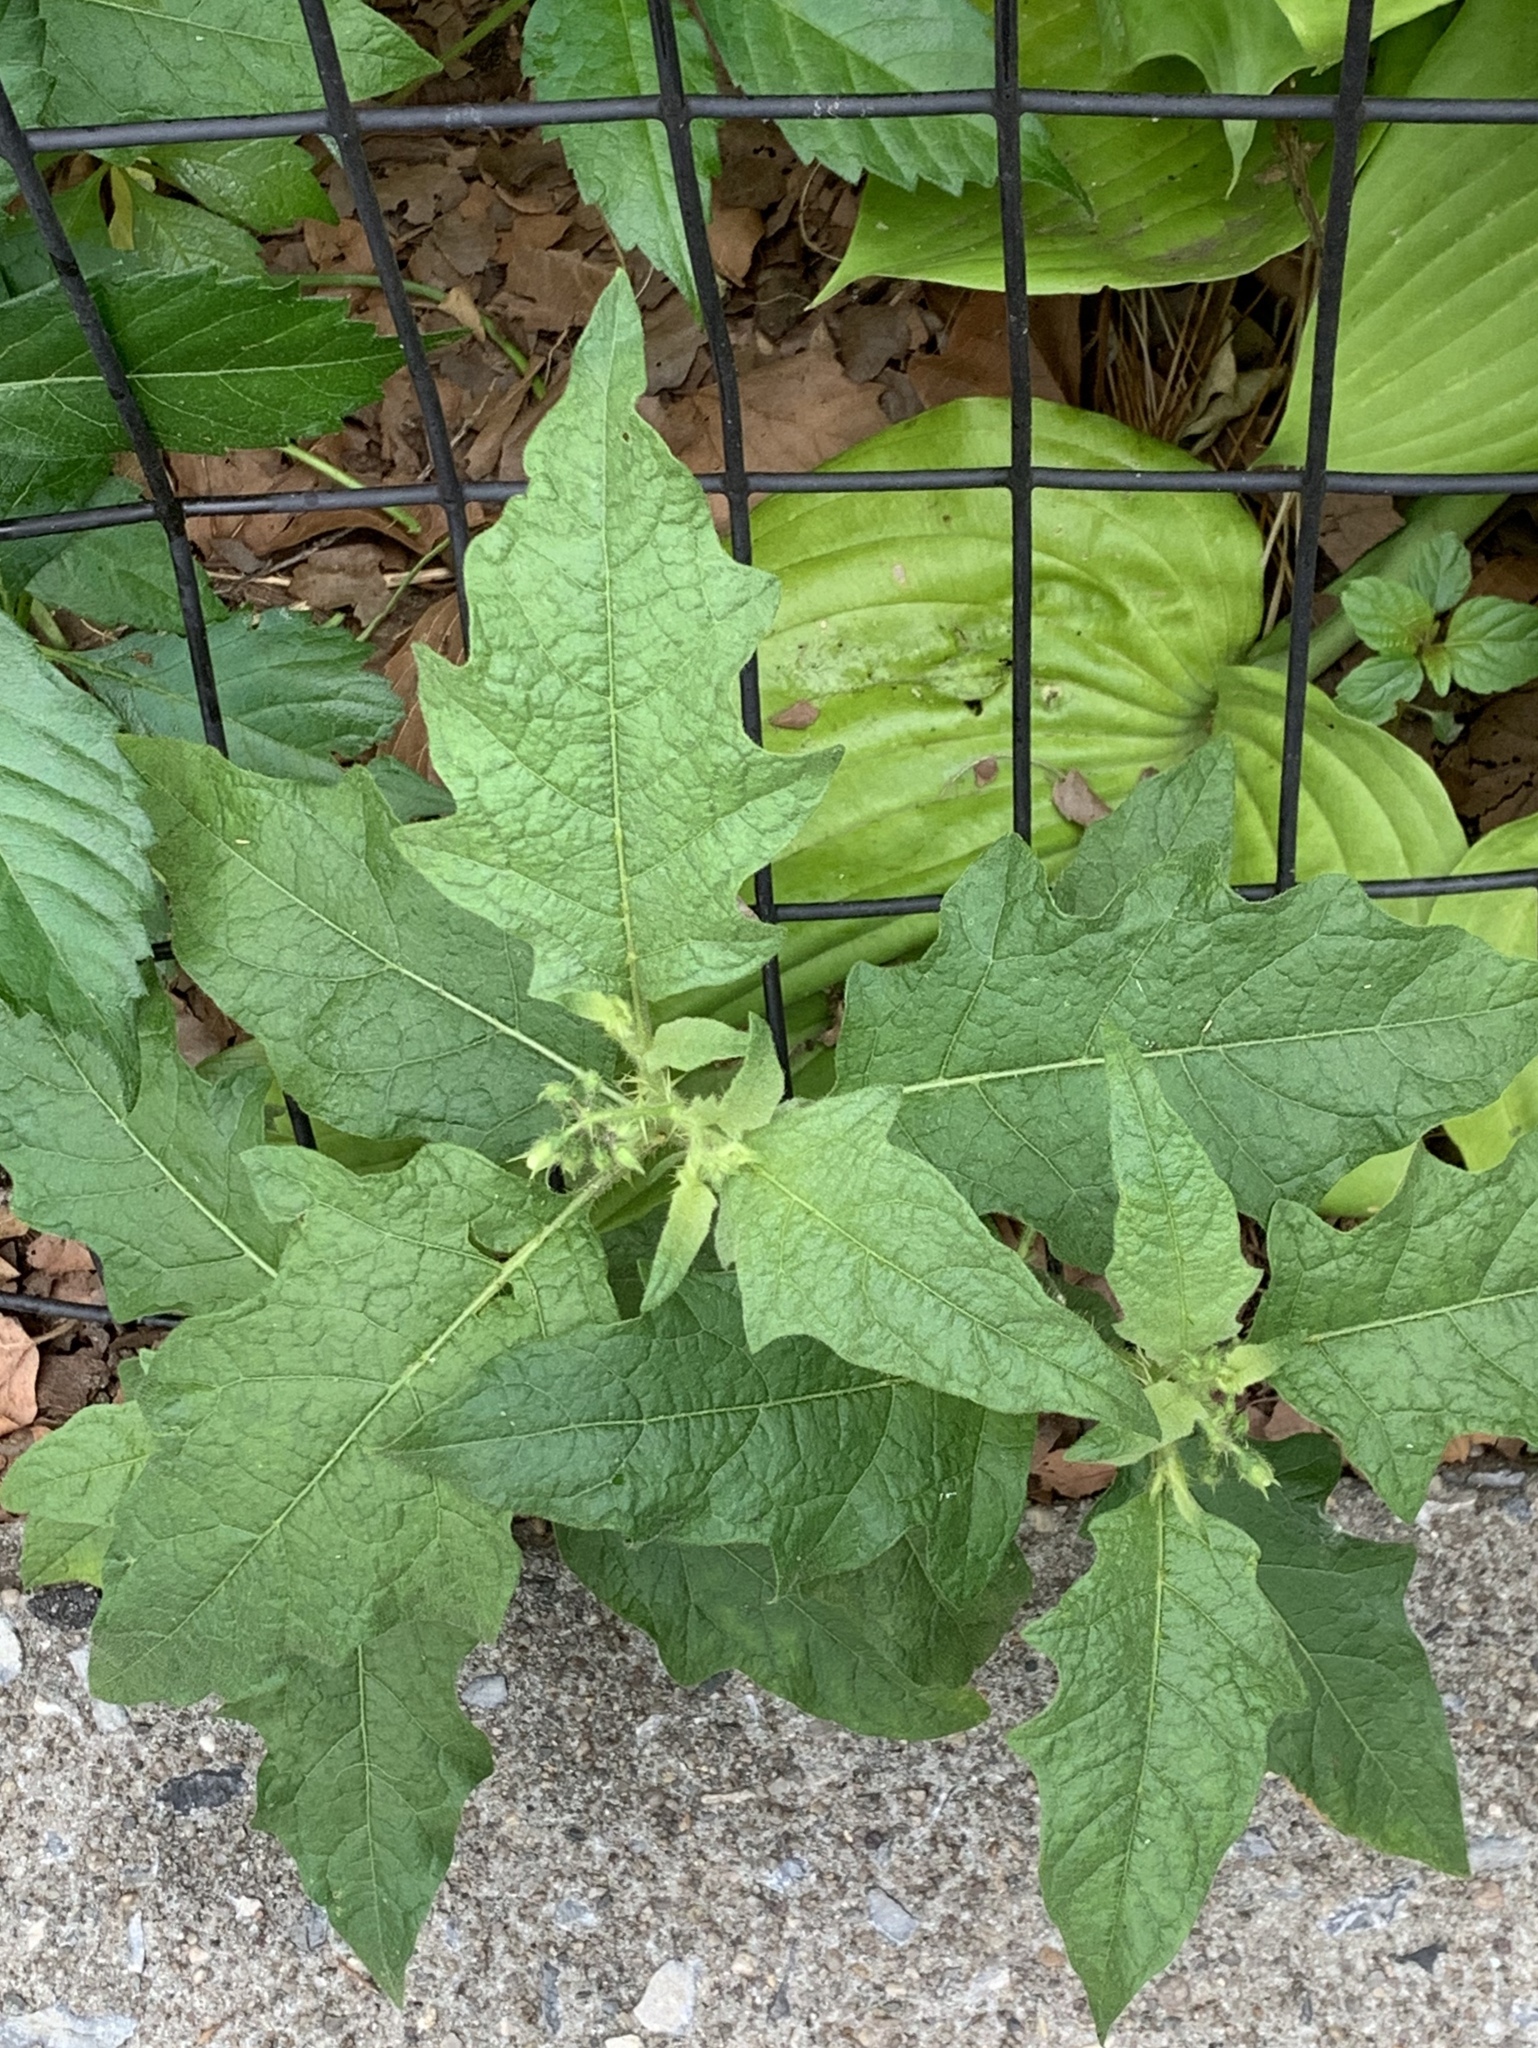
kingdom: Plantae
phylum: Tracheophyta
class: Magnoliopsida
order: Solanales
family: Solanaceae
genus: Solanum
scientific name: Solanum carolinense
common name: Horse-nettle
